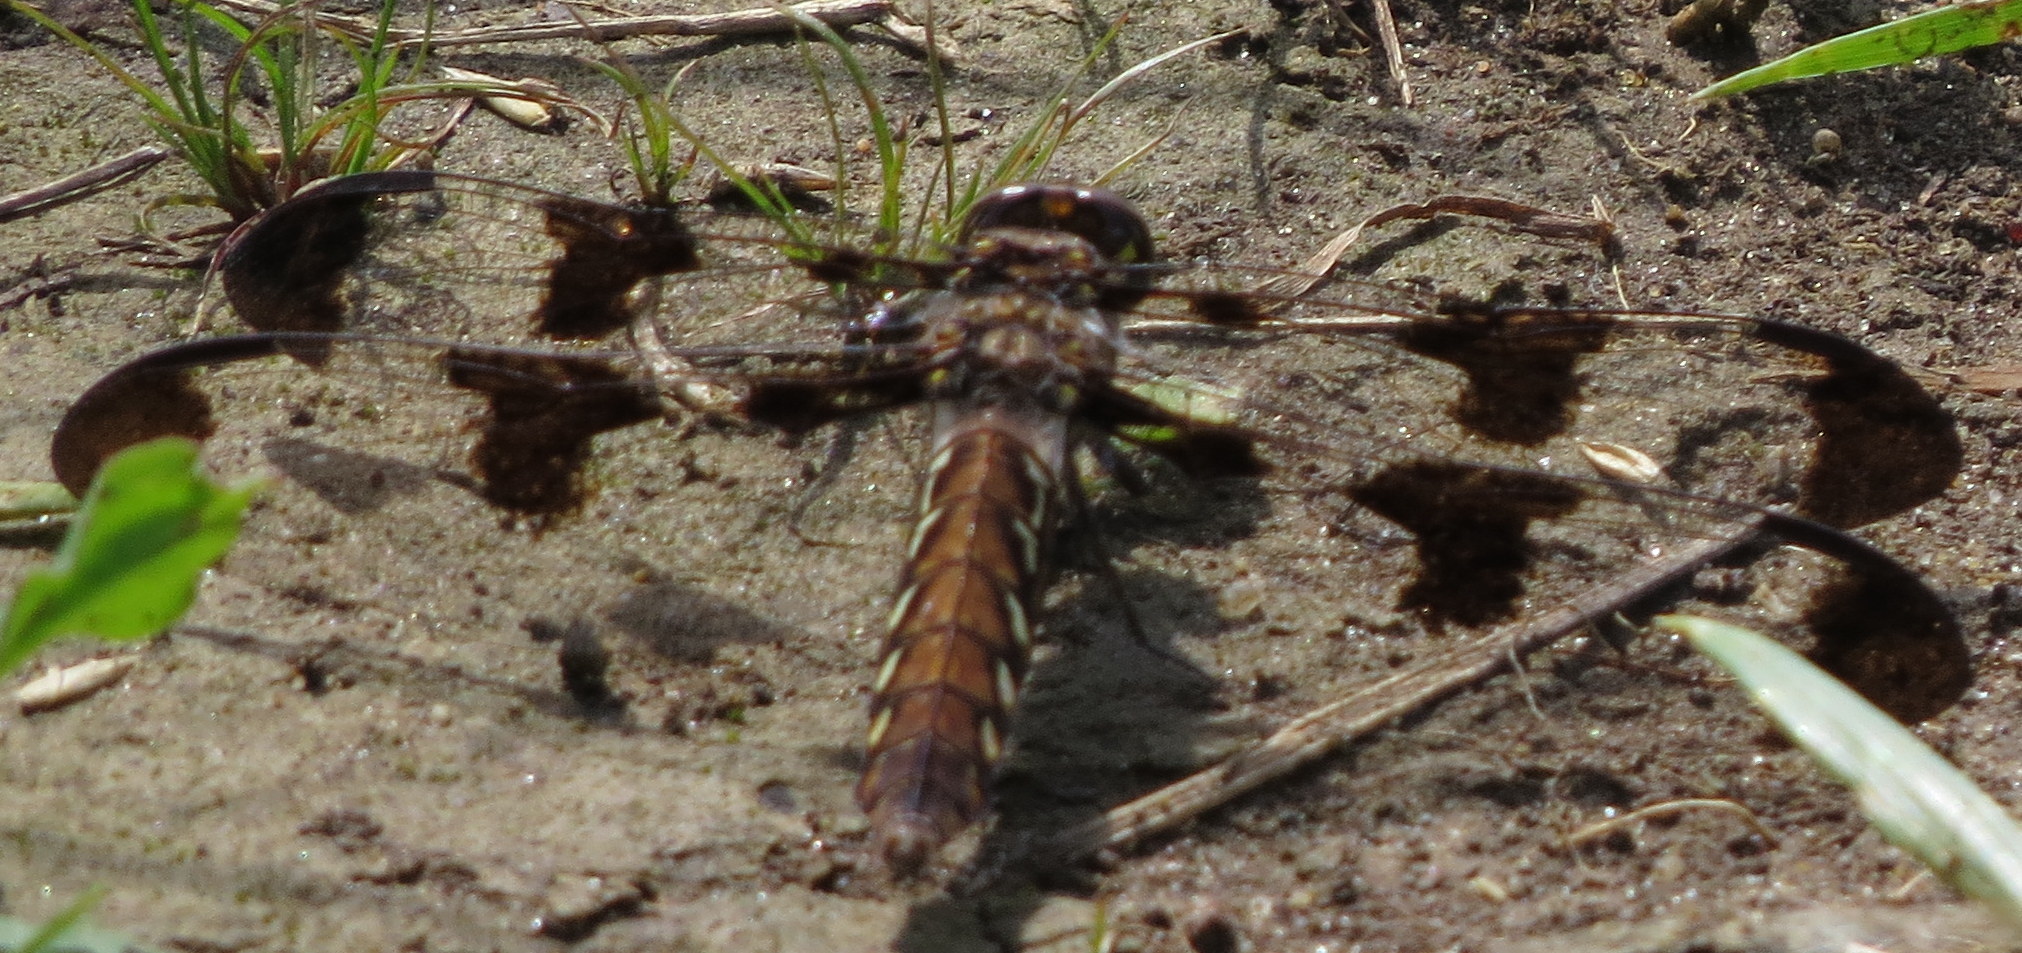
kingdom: Animalia
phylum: Arthropoda
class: Insecta
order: Odonata
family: Libellulidae
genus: Plathemis
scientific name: Plathemis lydia
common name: Common whitetail
